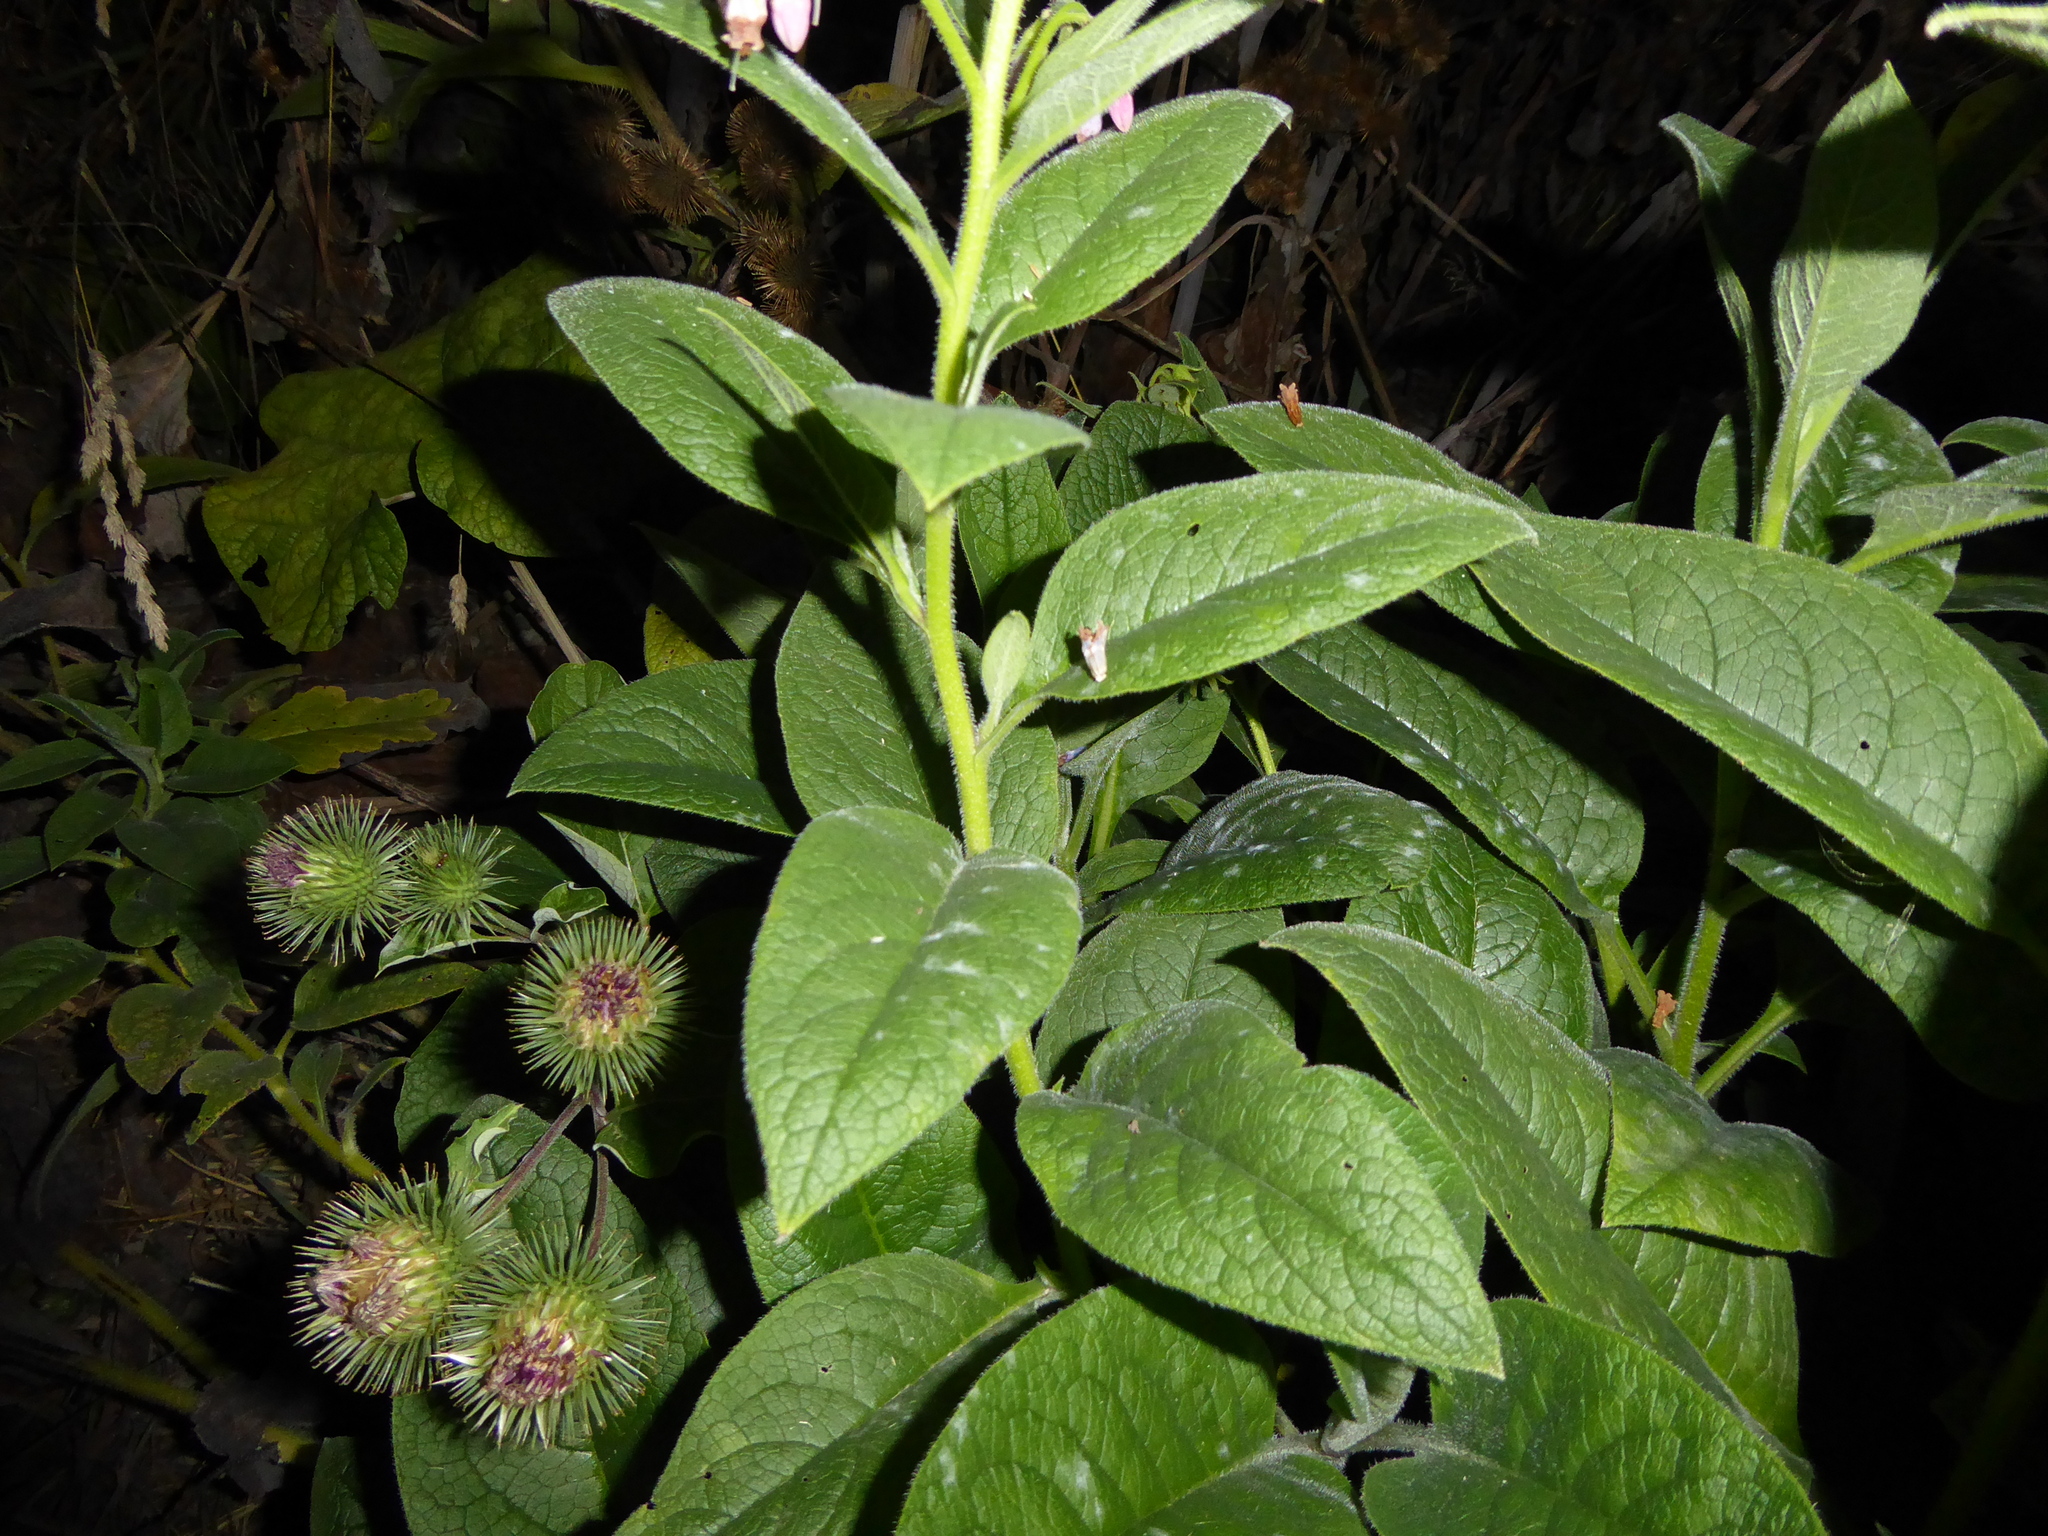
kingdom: Plantae
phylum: Tracheophyta
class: Magnoliopsida
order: Boraginales
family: Boraginaceae
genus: Symphytum
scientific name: Symphytum uplandicum
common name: Russian comfrey
